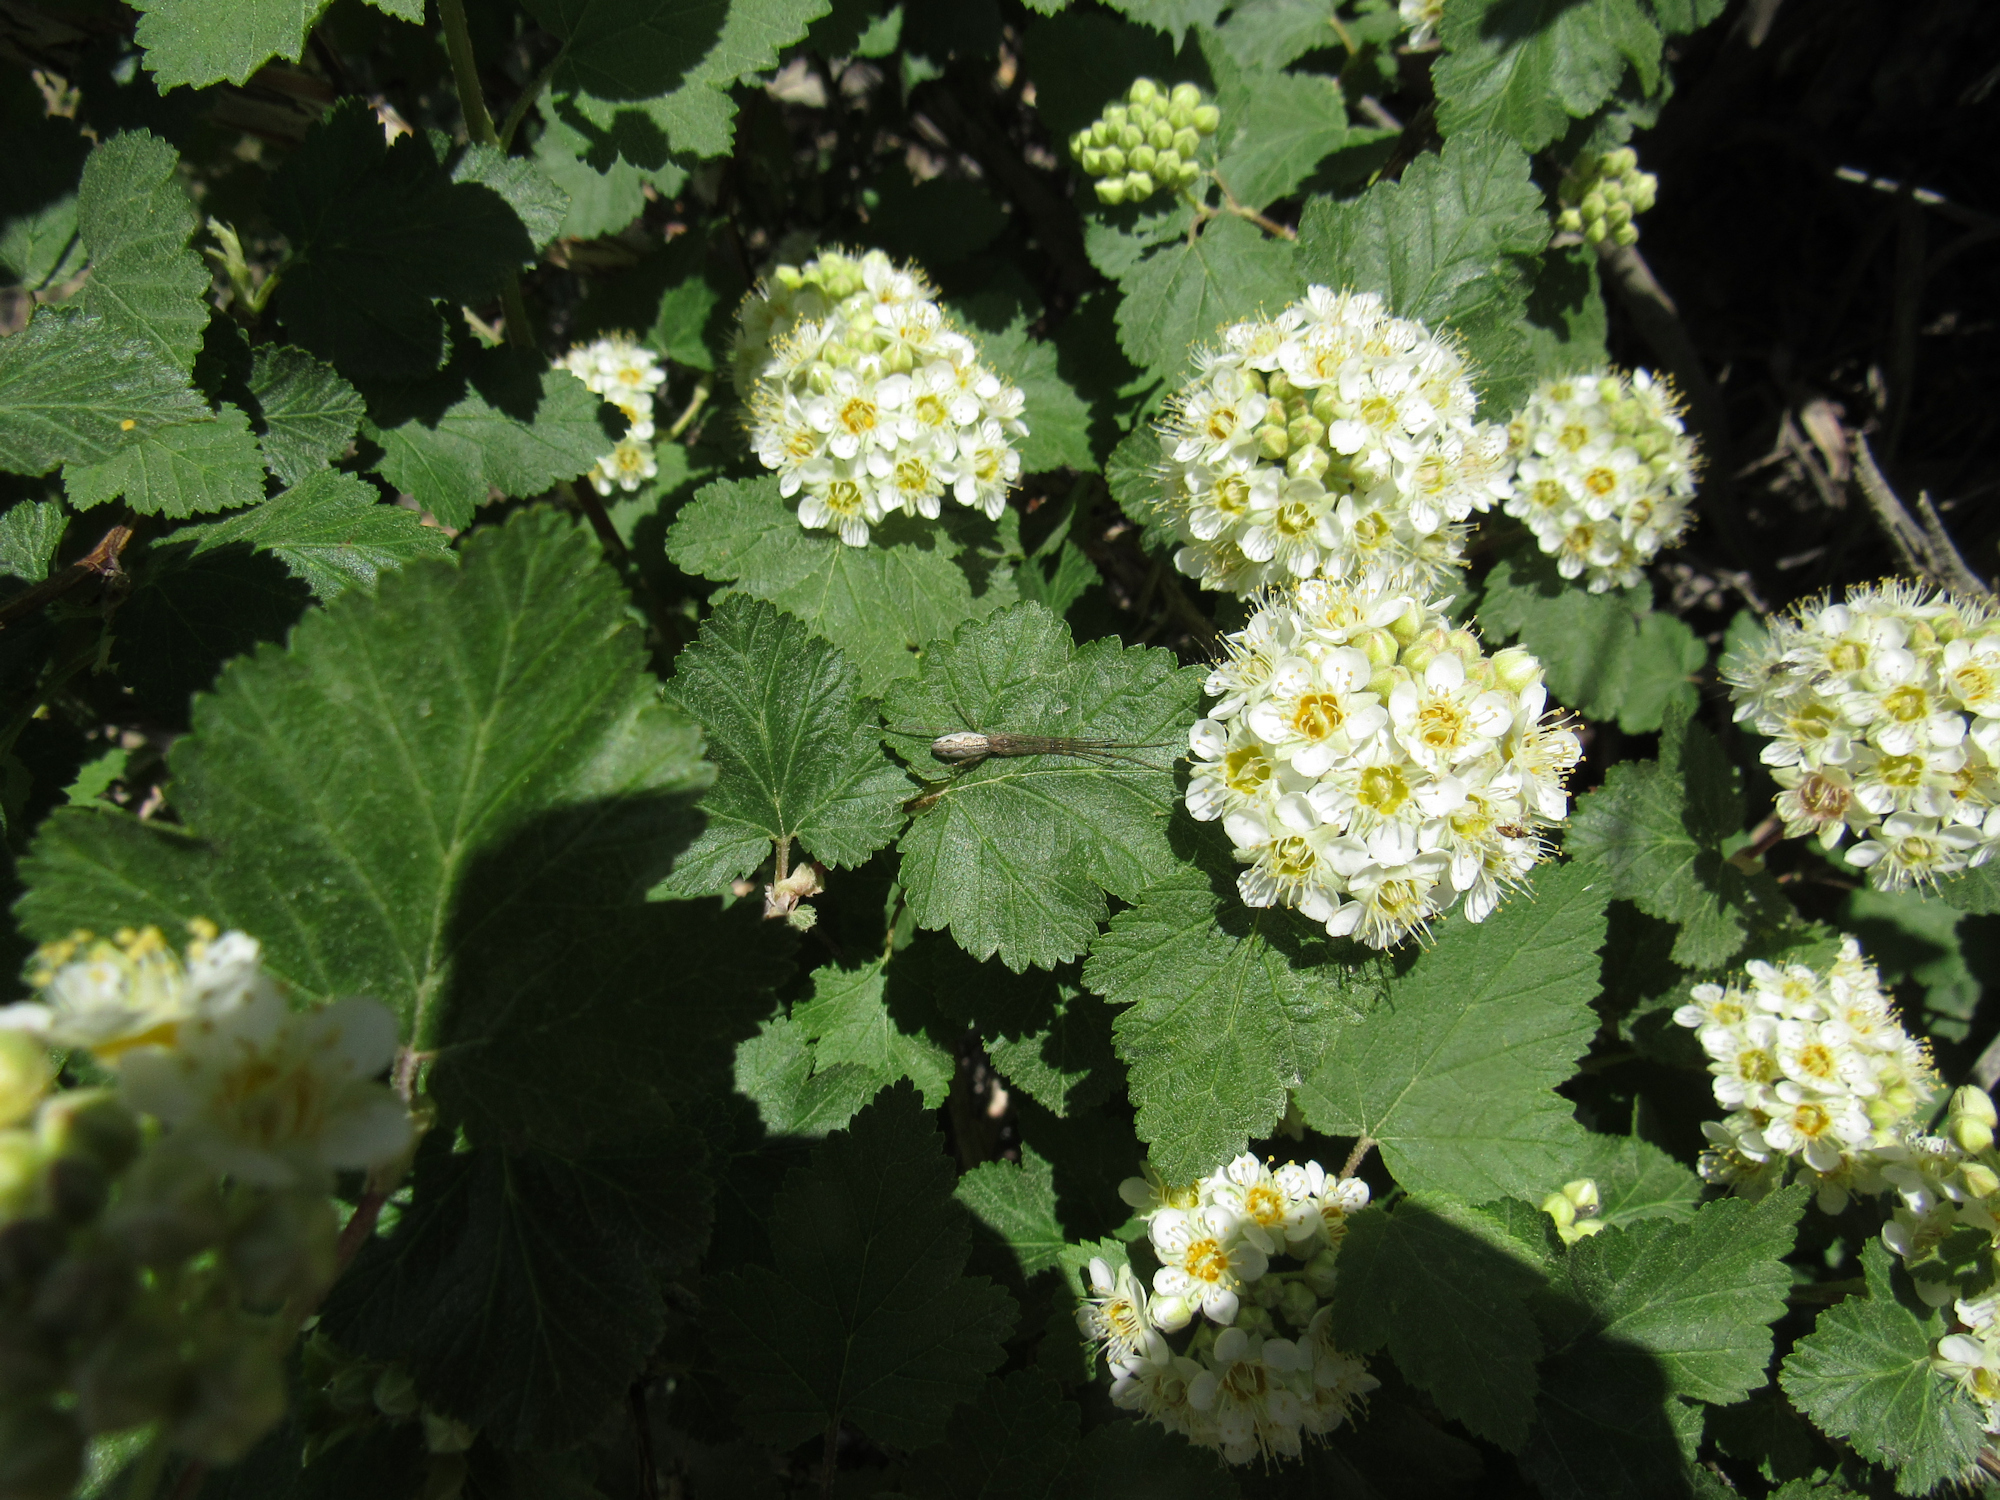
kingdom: Plantae
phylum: Tracheophyta
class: Magnoliopsida
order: Rosales
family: Rosaceae
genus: Physocarpus
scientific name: Physocarpus malvaceus
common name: Mallow ninebark
